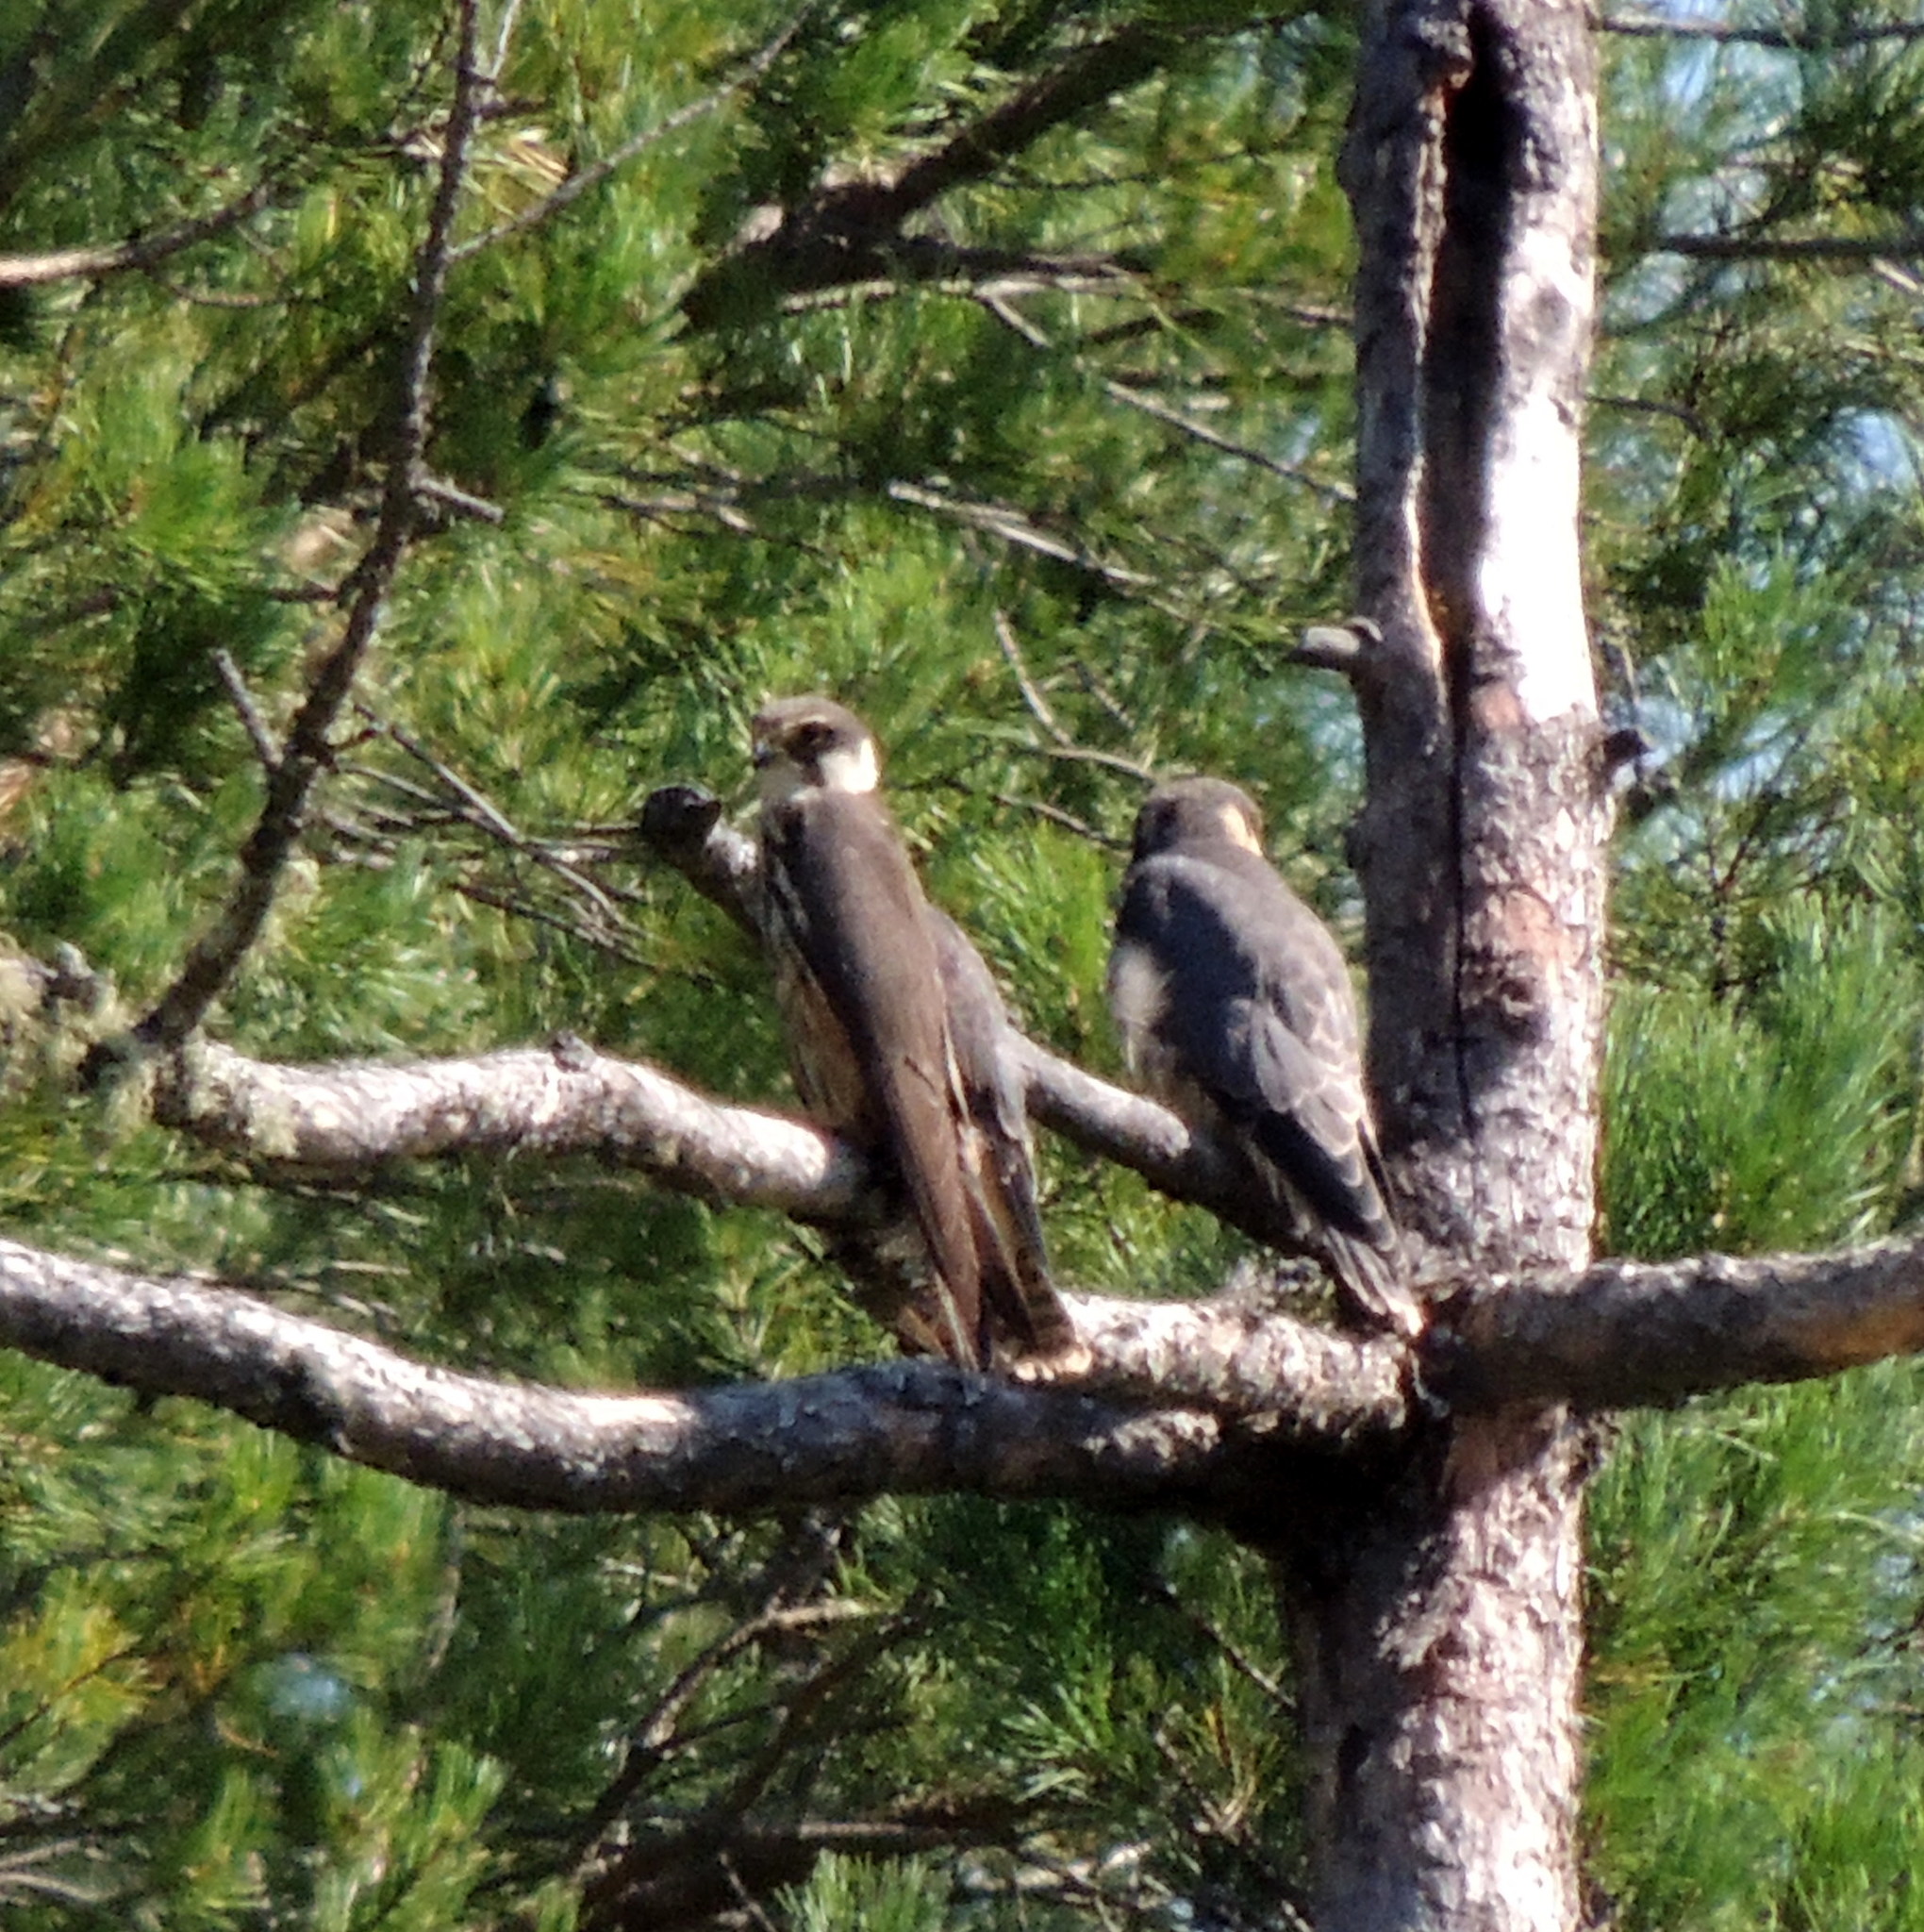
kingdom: Animalia
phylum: Chordata
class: Aves
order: Falconiformes
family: Falconidae
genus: Falco
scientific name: Falco subbuteo
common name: Eurasian hobby
